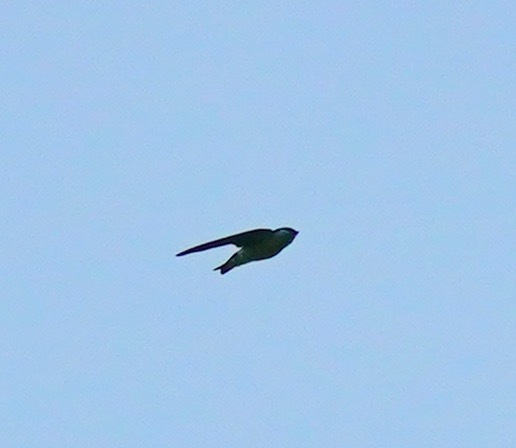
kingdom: Animalia
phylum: Chordata
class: Aves
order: Passeriformes
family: Hirundinidae
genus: Tachycineta
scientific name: Tachycineta thalassina
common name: Violet-green swallow
